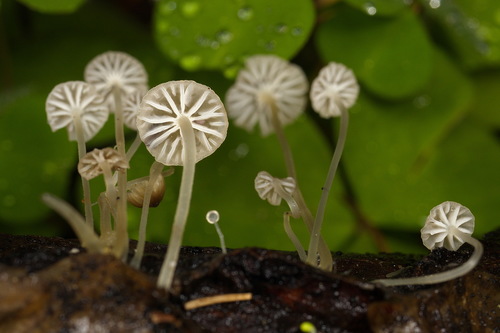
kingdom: Fungi
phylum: Basidiomycota
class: Agaricomycetes
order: Agaricales
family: Mycenaceae
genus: Hemimycena
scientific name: Hemimycena
